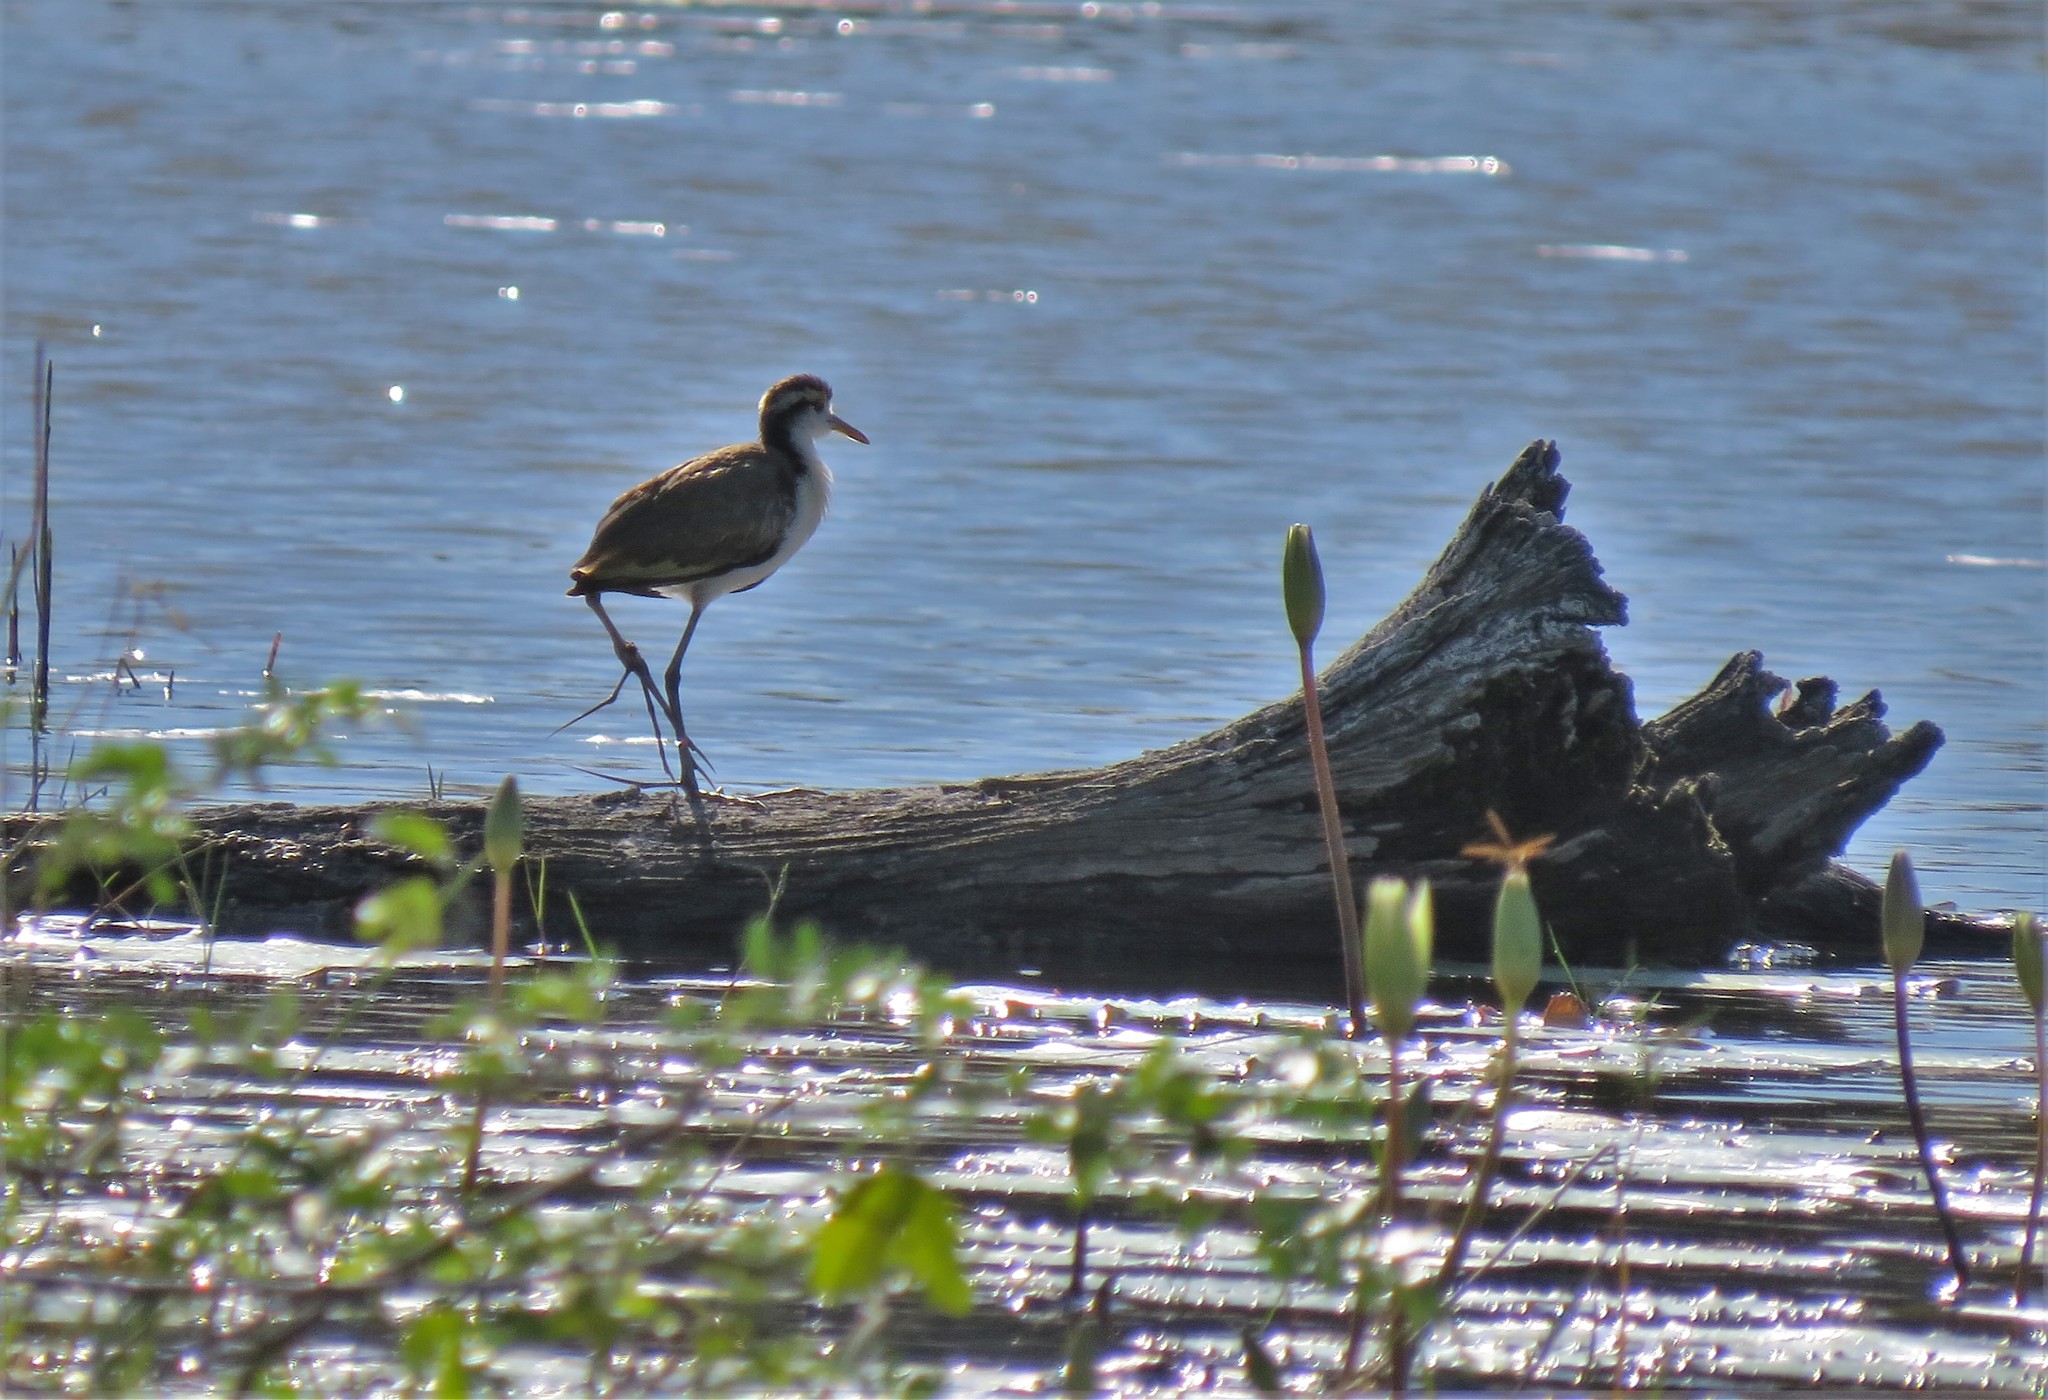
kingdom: Animalia
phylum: Chordata
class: Aves
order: Charadriiformes
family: Jacanidae
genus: Jacana
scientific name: Jacana spinosa
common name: Northern jacana
